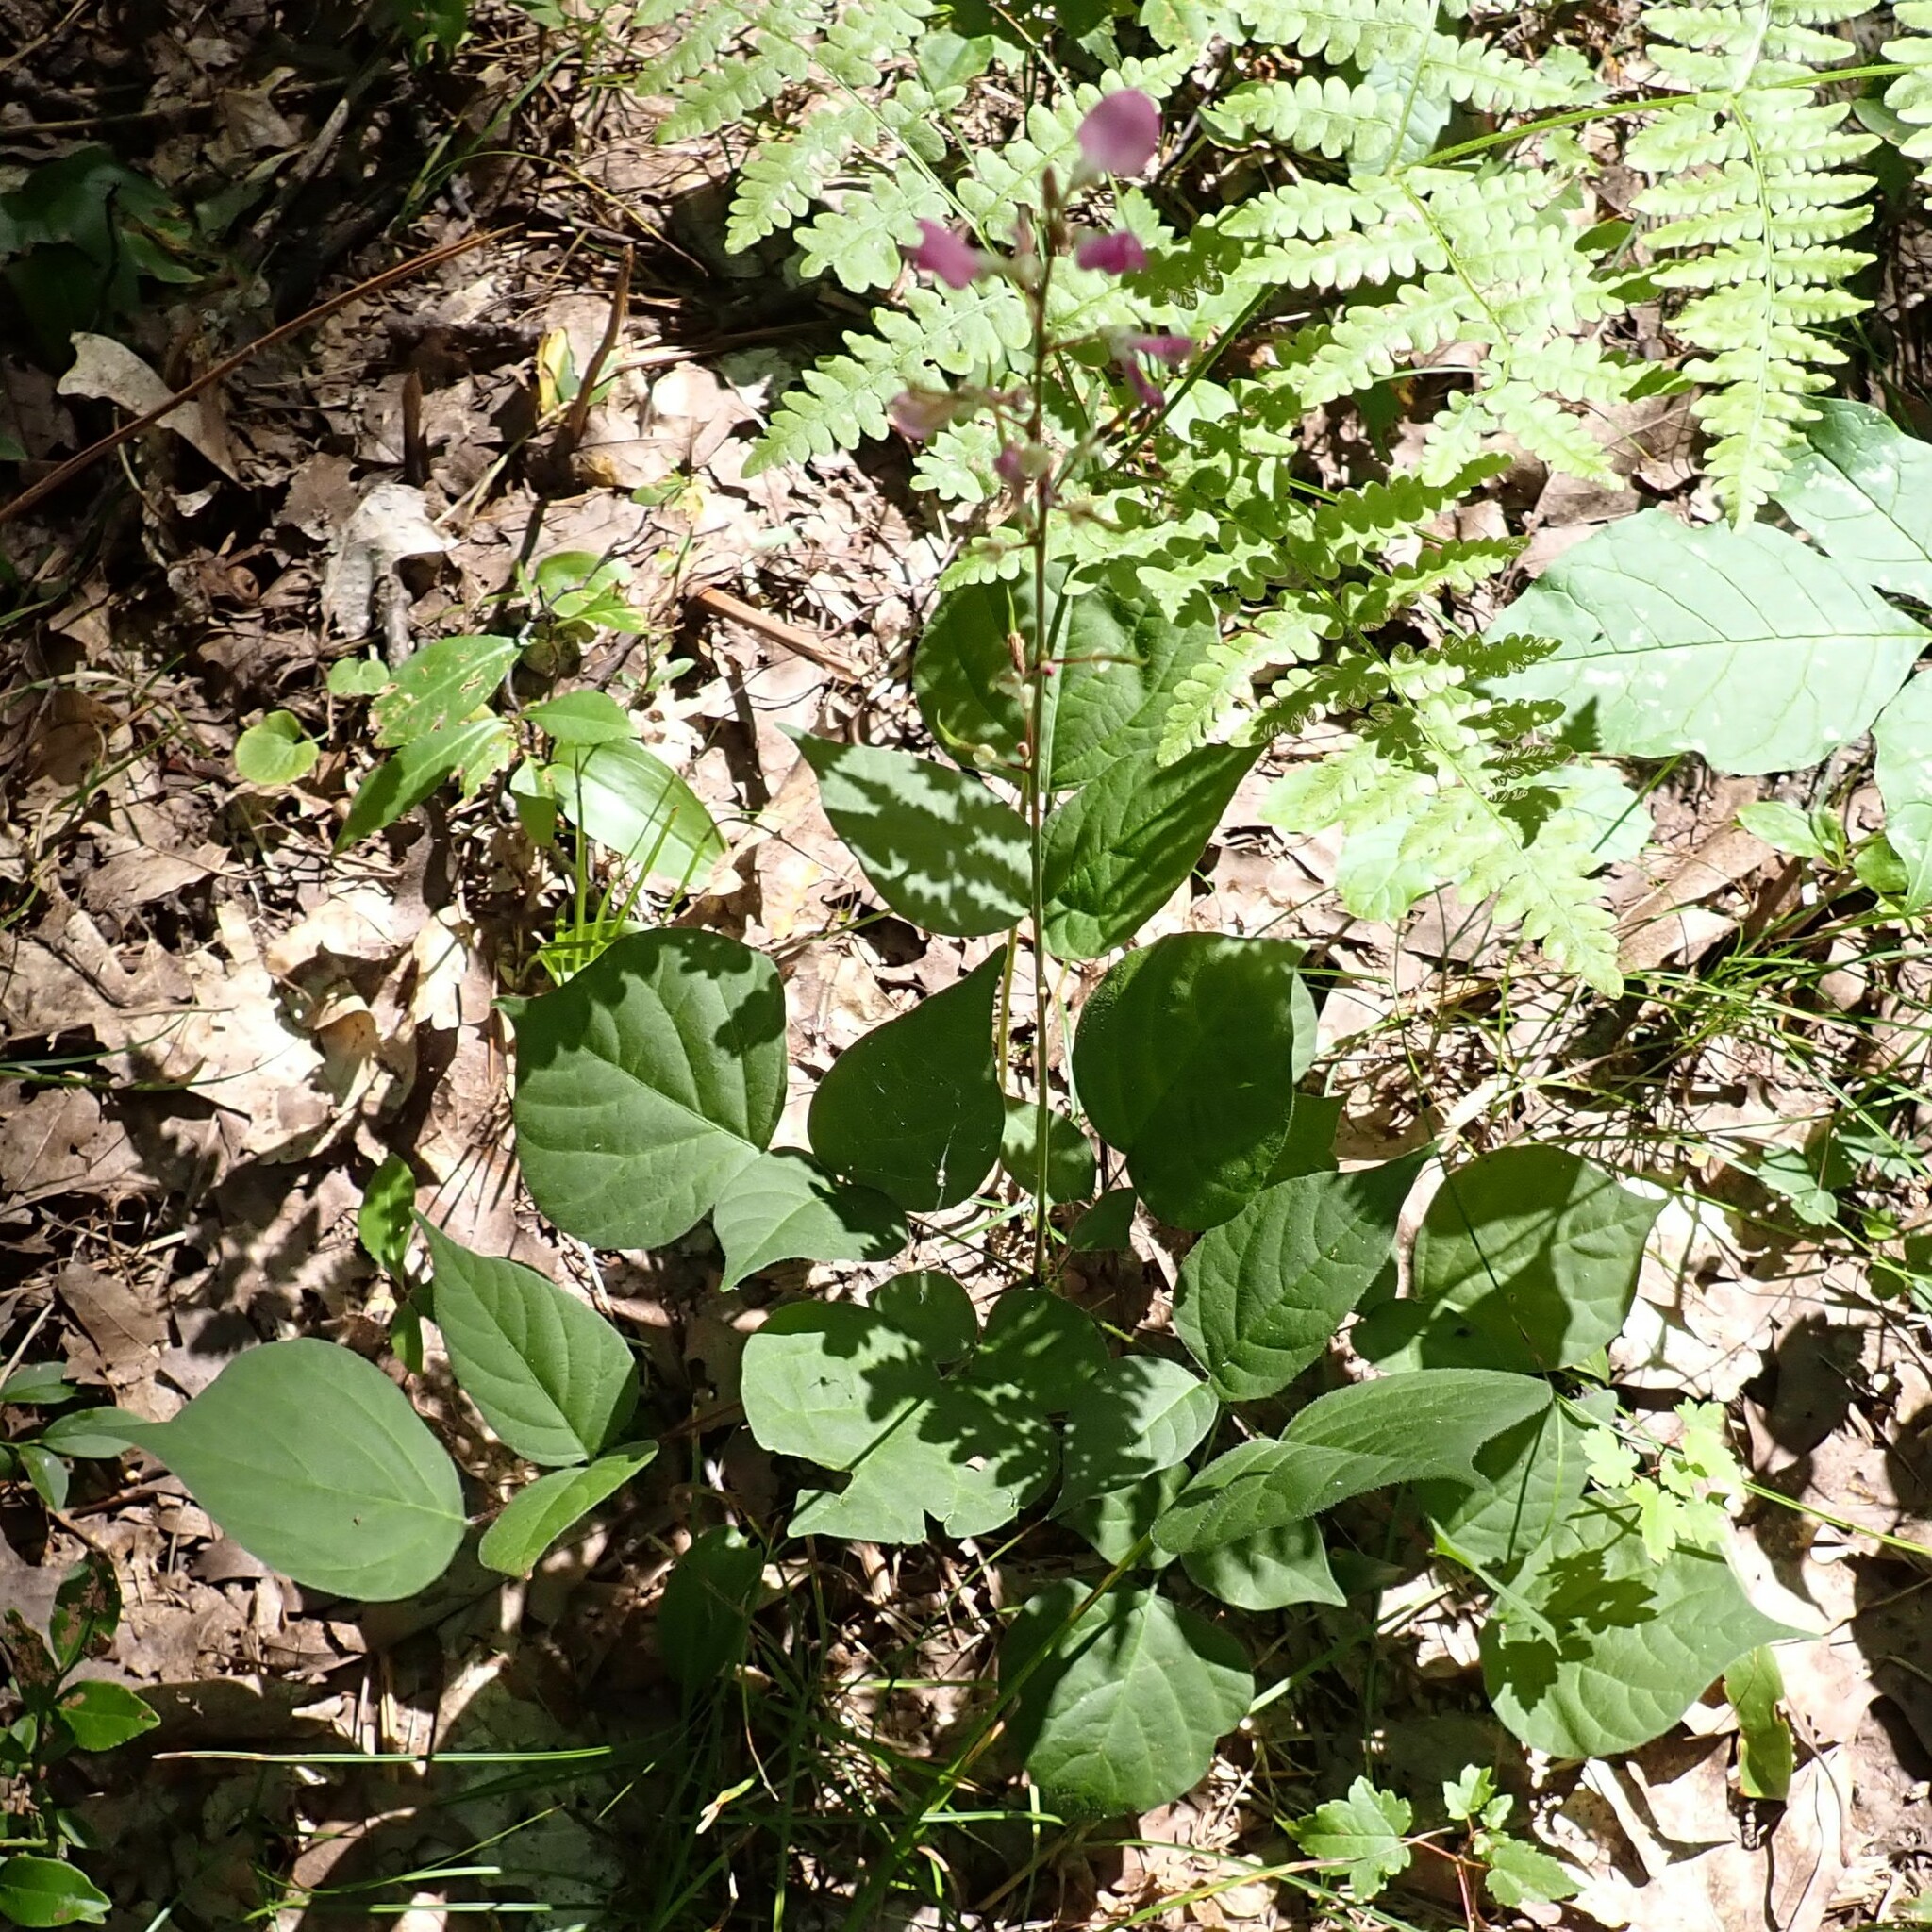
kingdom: Plantae
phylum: Tracheophyta
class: Magnoliopsida
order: Fabales
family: Fabaceae
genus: Hylodesmum
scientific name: Hylodesmum glutinosum
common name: Clustered-leaved tick-trefoil
